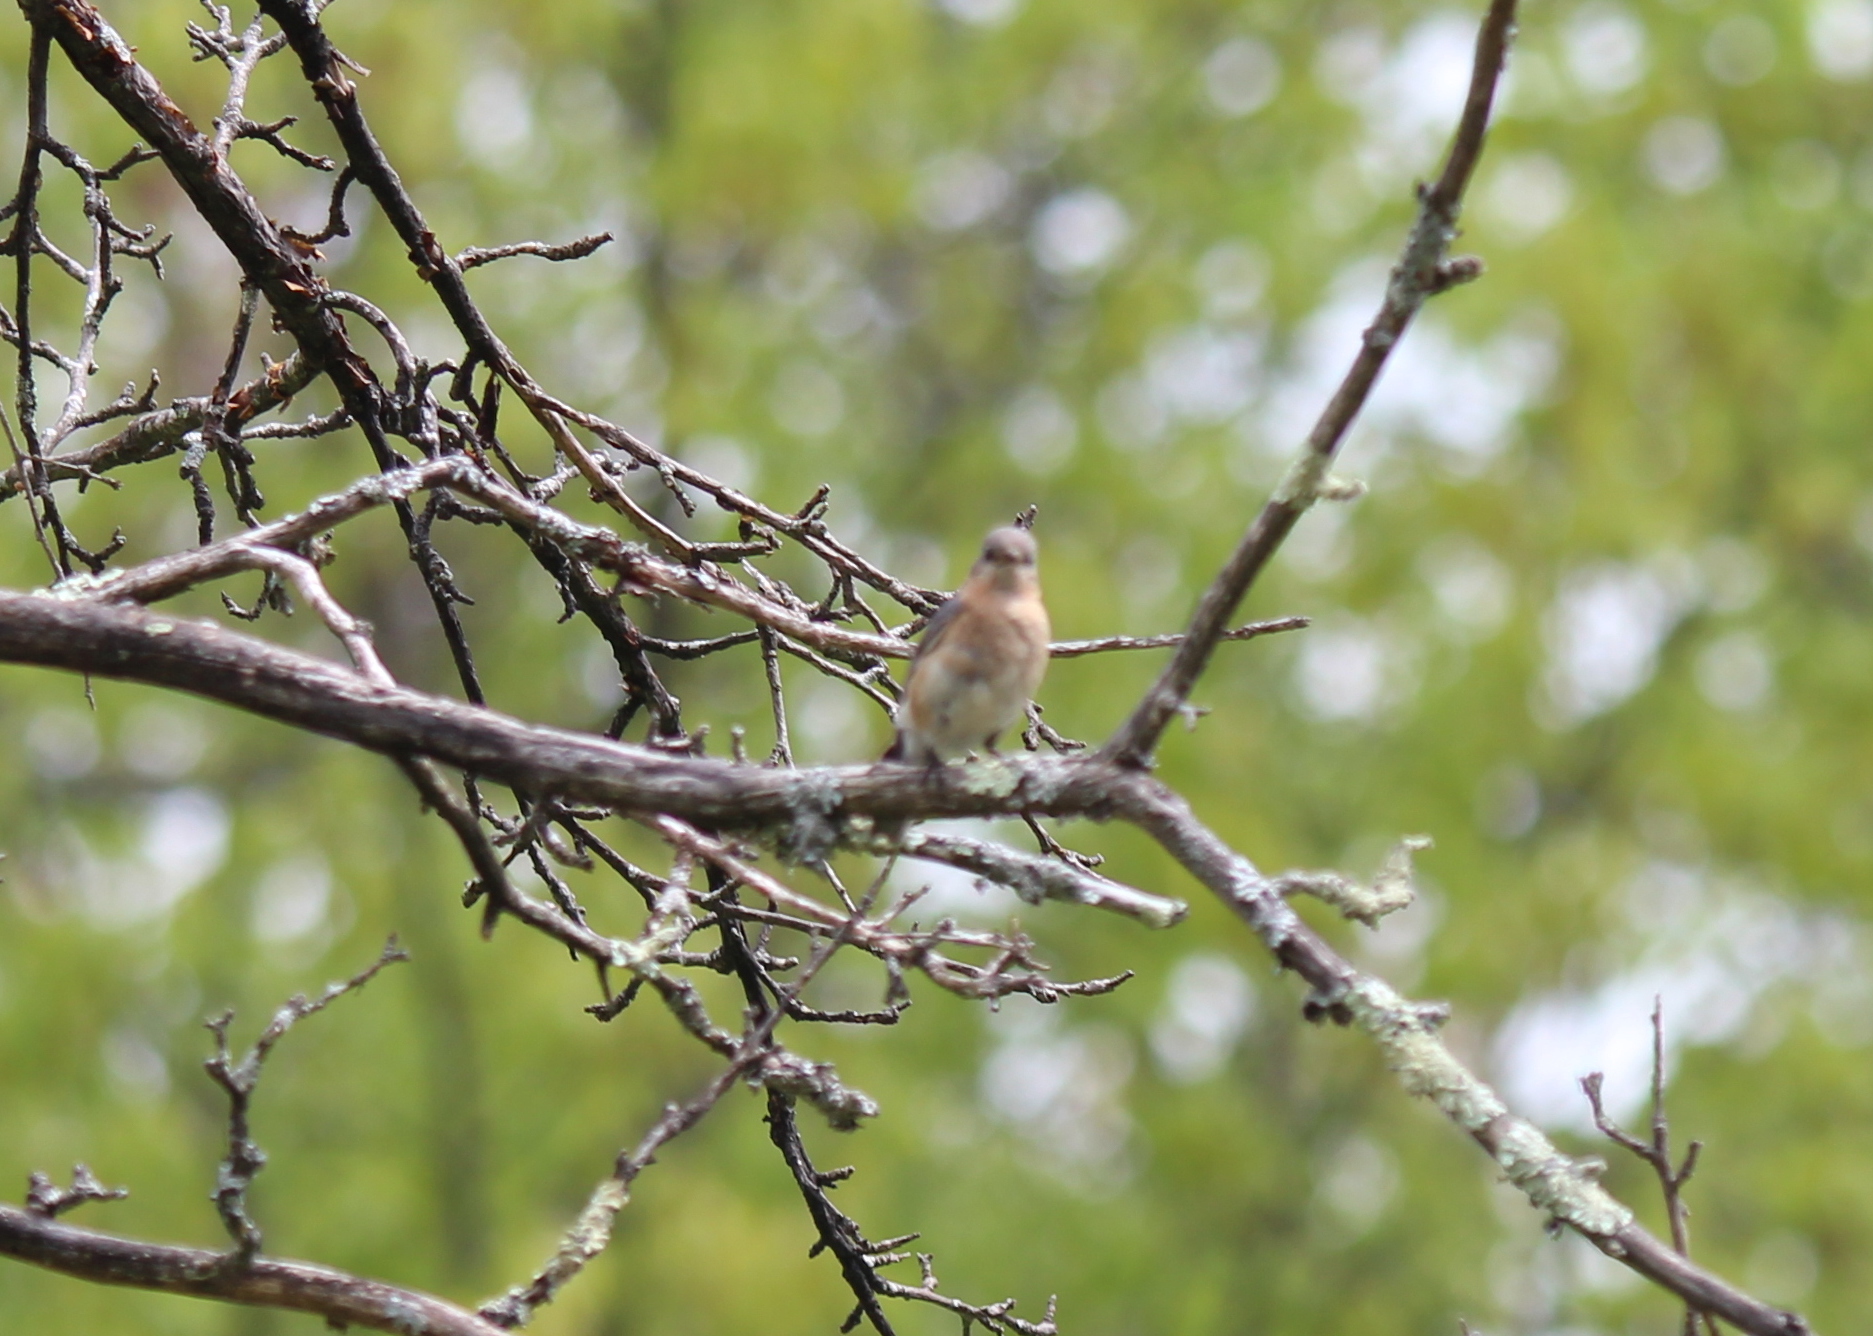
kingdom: Animalia
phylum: Chordata
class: Aves
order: Passeriformes
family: Turdidae
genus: Sialia
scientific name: Sialia sialis
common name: Eastern bluebird
